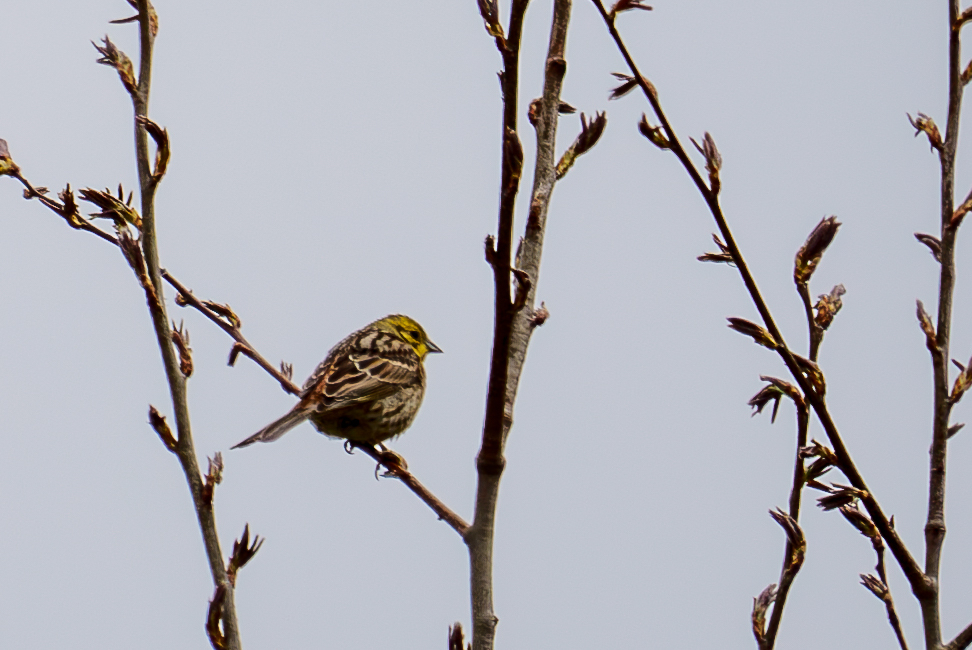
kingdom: Animalia
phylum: Chordata
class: Aves
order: Passeriformes
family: Emberizidae
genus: Emberiza
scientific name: Emberiza citrinella
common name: Yellowhammer
